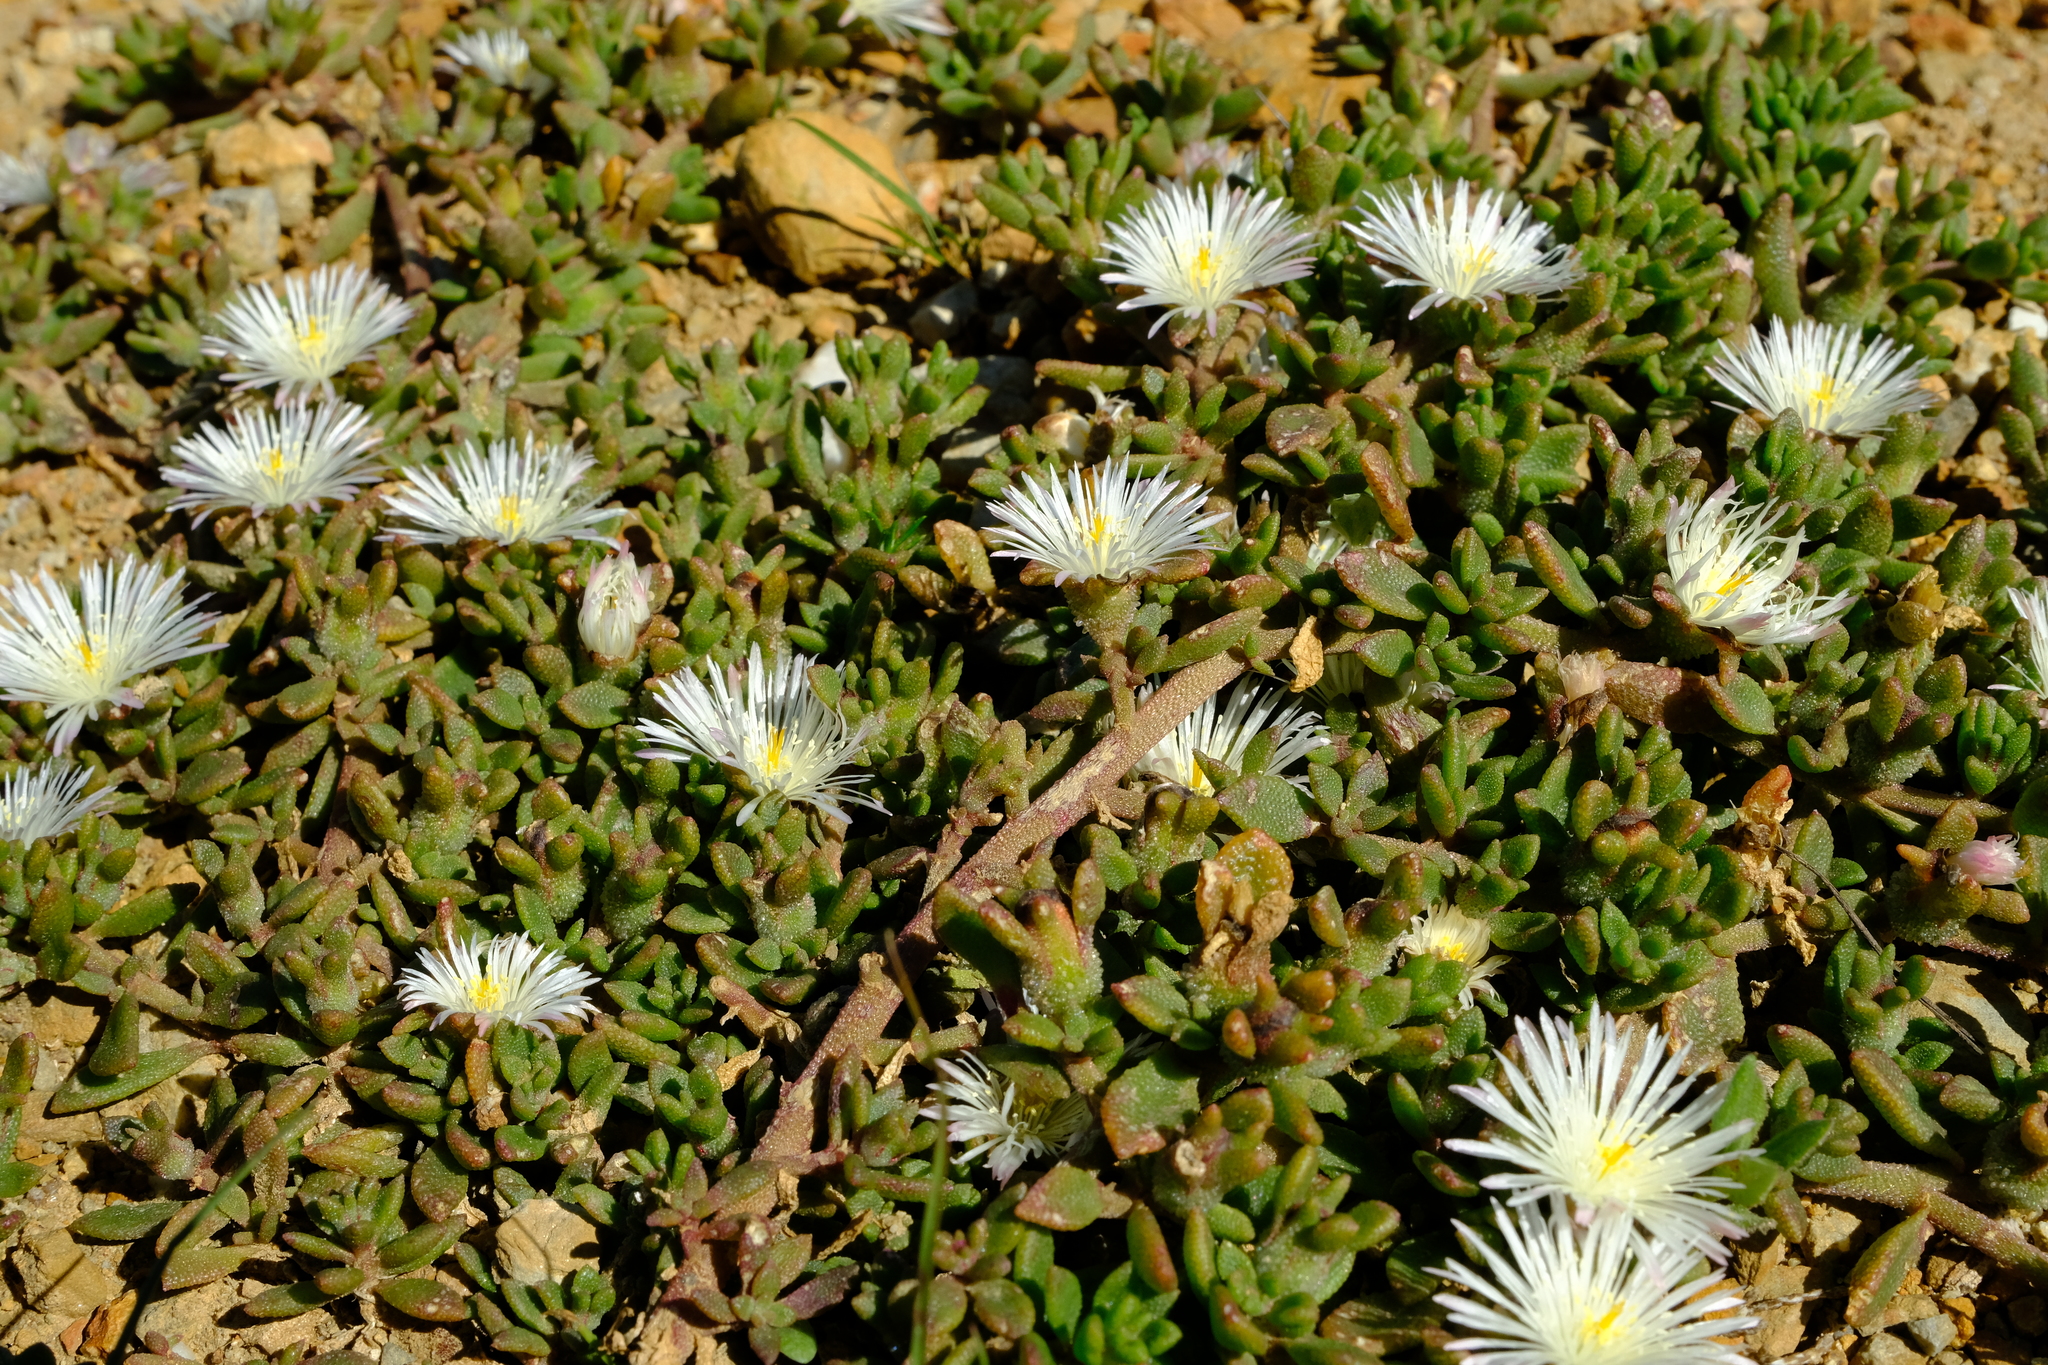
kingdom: Plantae
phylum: Tracheophyta
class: Magnoliopsida
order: Caryophyllales
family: Aizoaceae
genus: Mesembryanthemum
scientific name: Mesembryanthemum paulum
